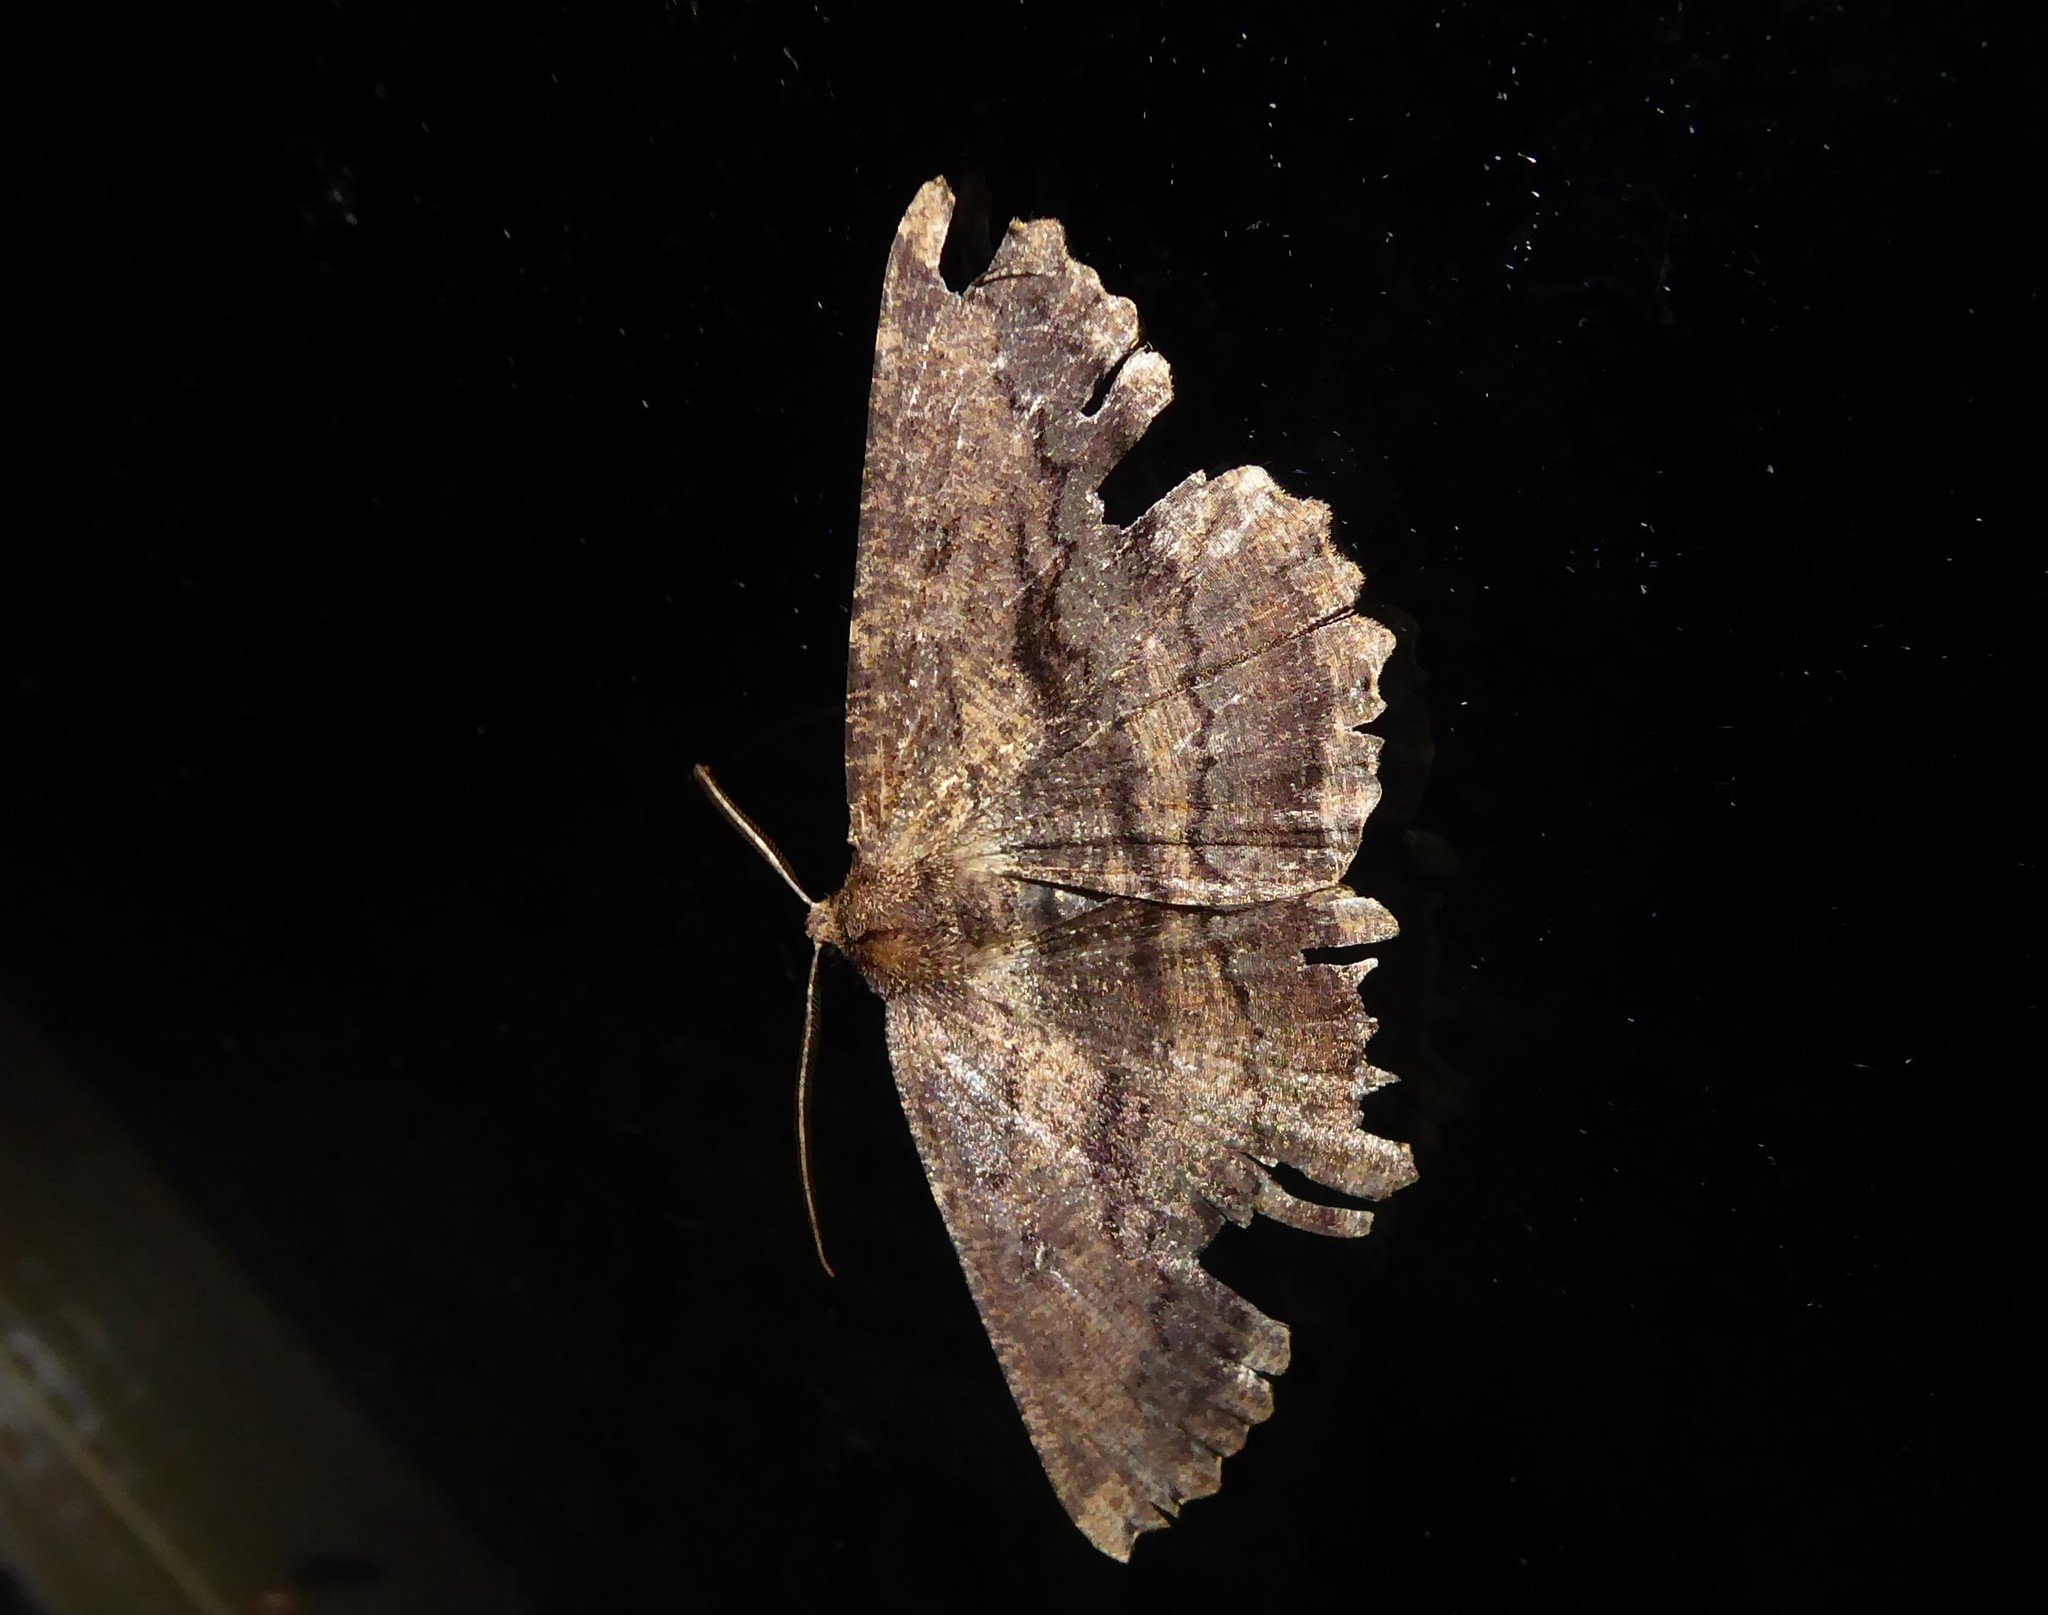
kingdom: Animalia
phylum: Arthropoda
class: Insecta
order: Lepidoptera
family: Geometridae
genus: Gellonia
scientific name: Gellonia dejectaria
